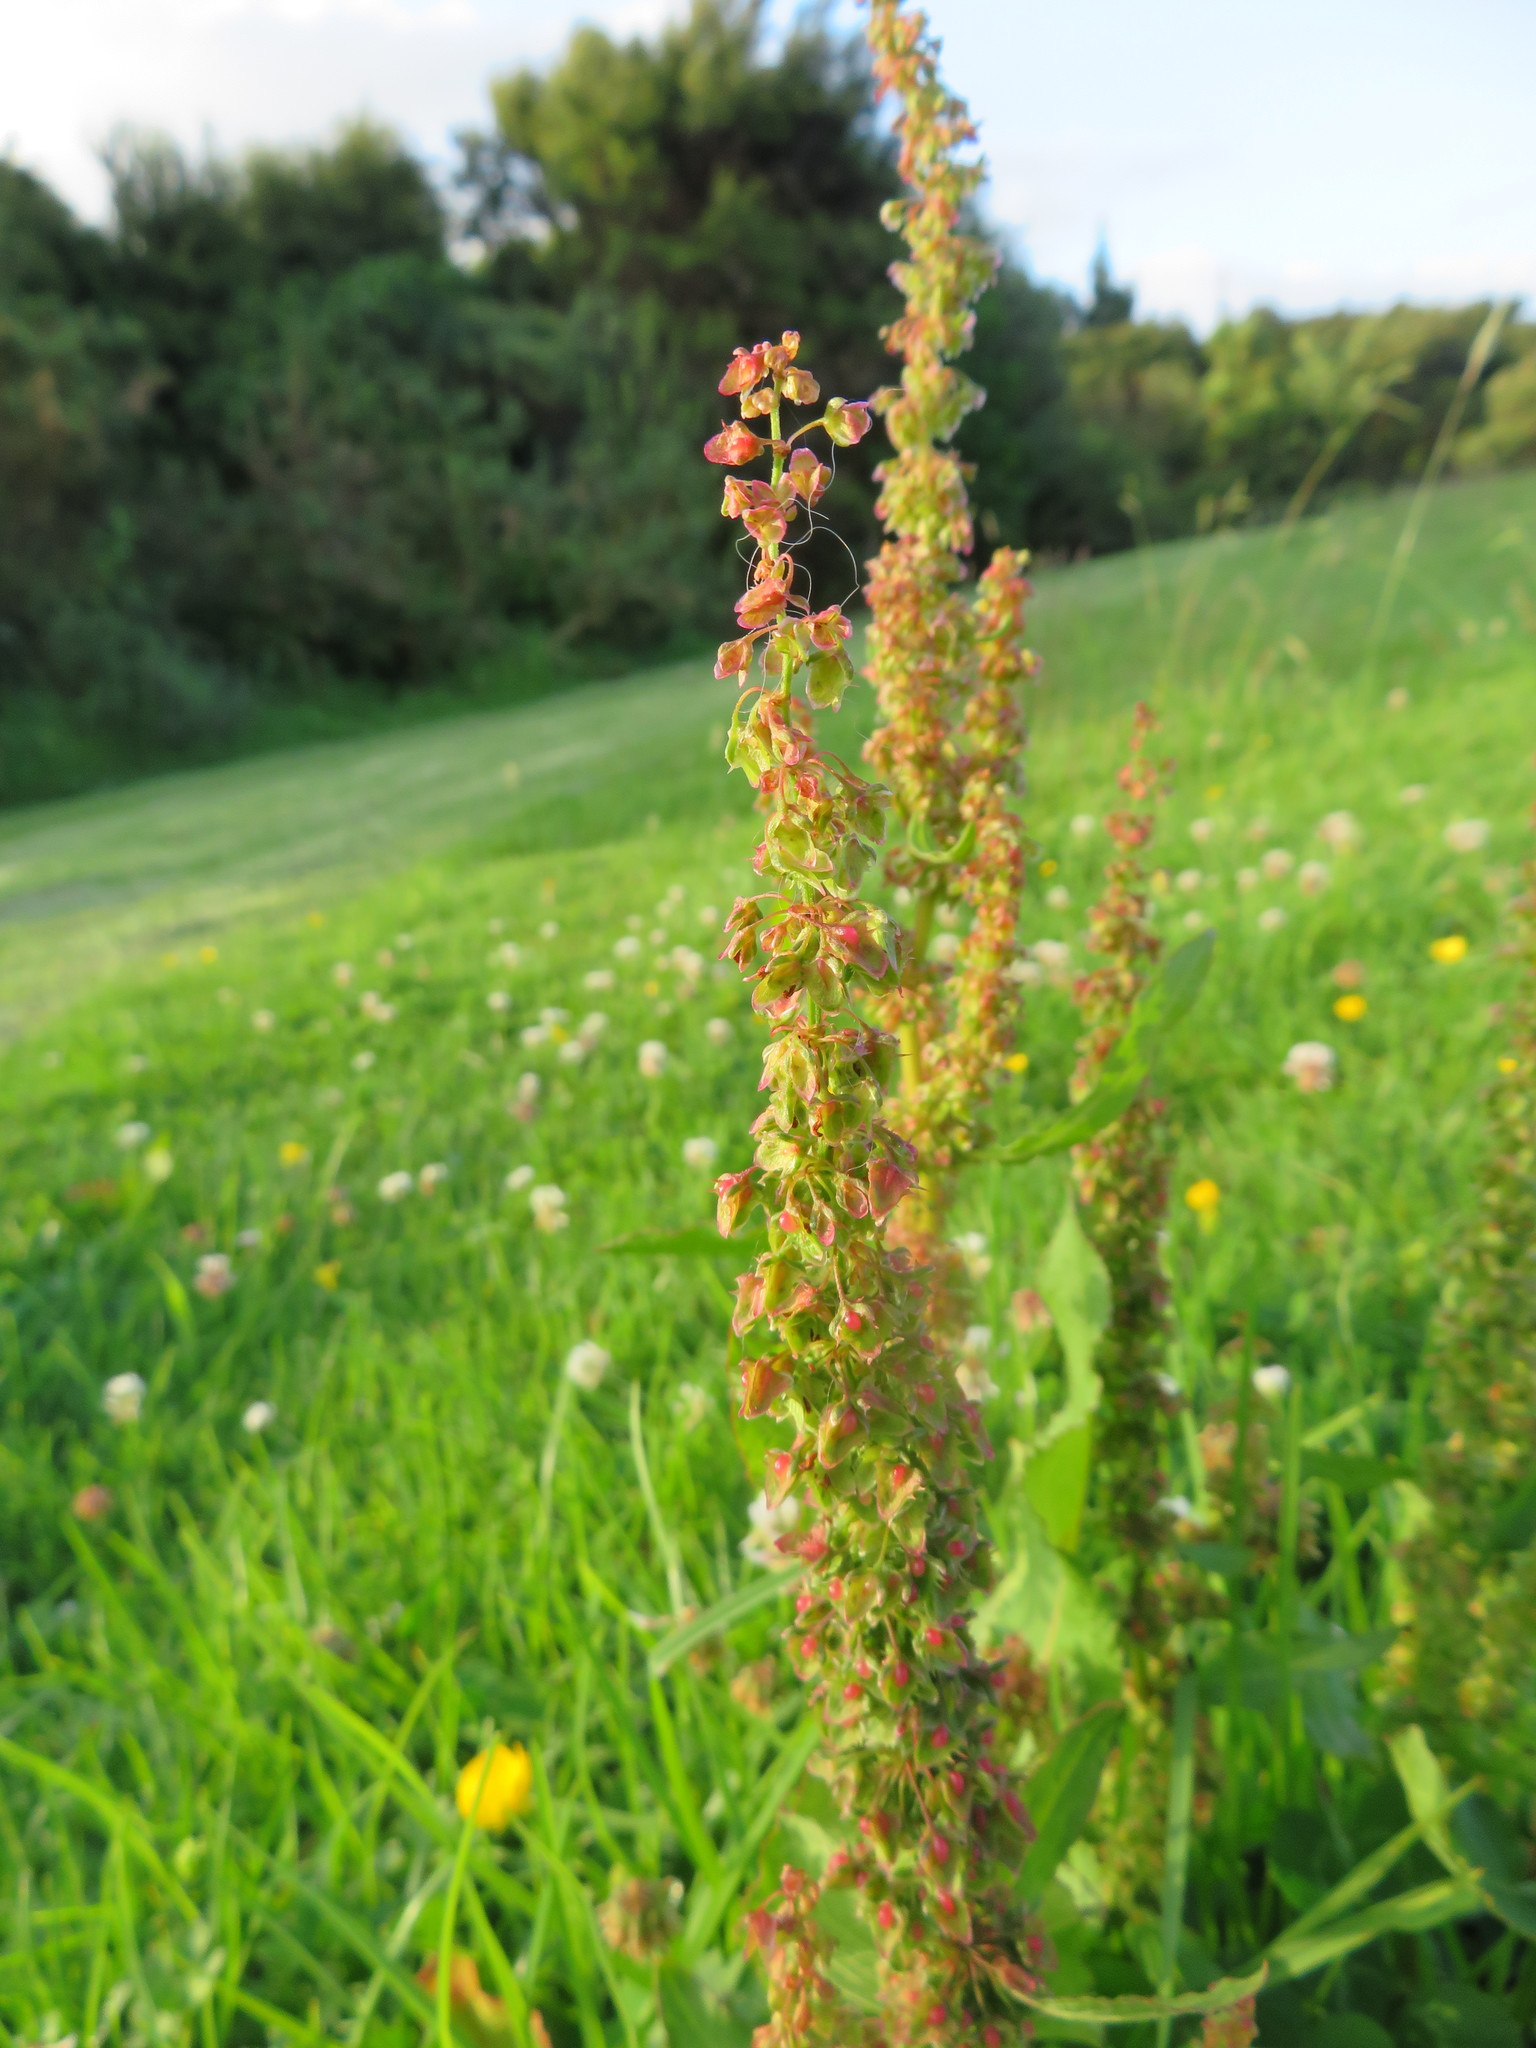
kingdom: Plantae
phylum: Tracheophyta
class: Magnoliopsida
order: Caryophyllales
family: Polygonaceae
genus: Rumex
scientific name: Rumex obtusifolius
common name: Bitter dock
